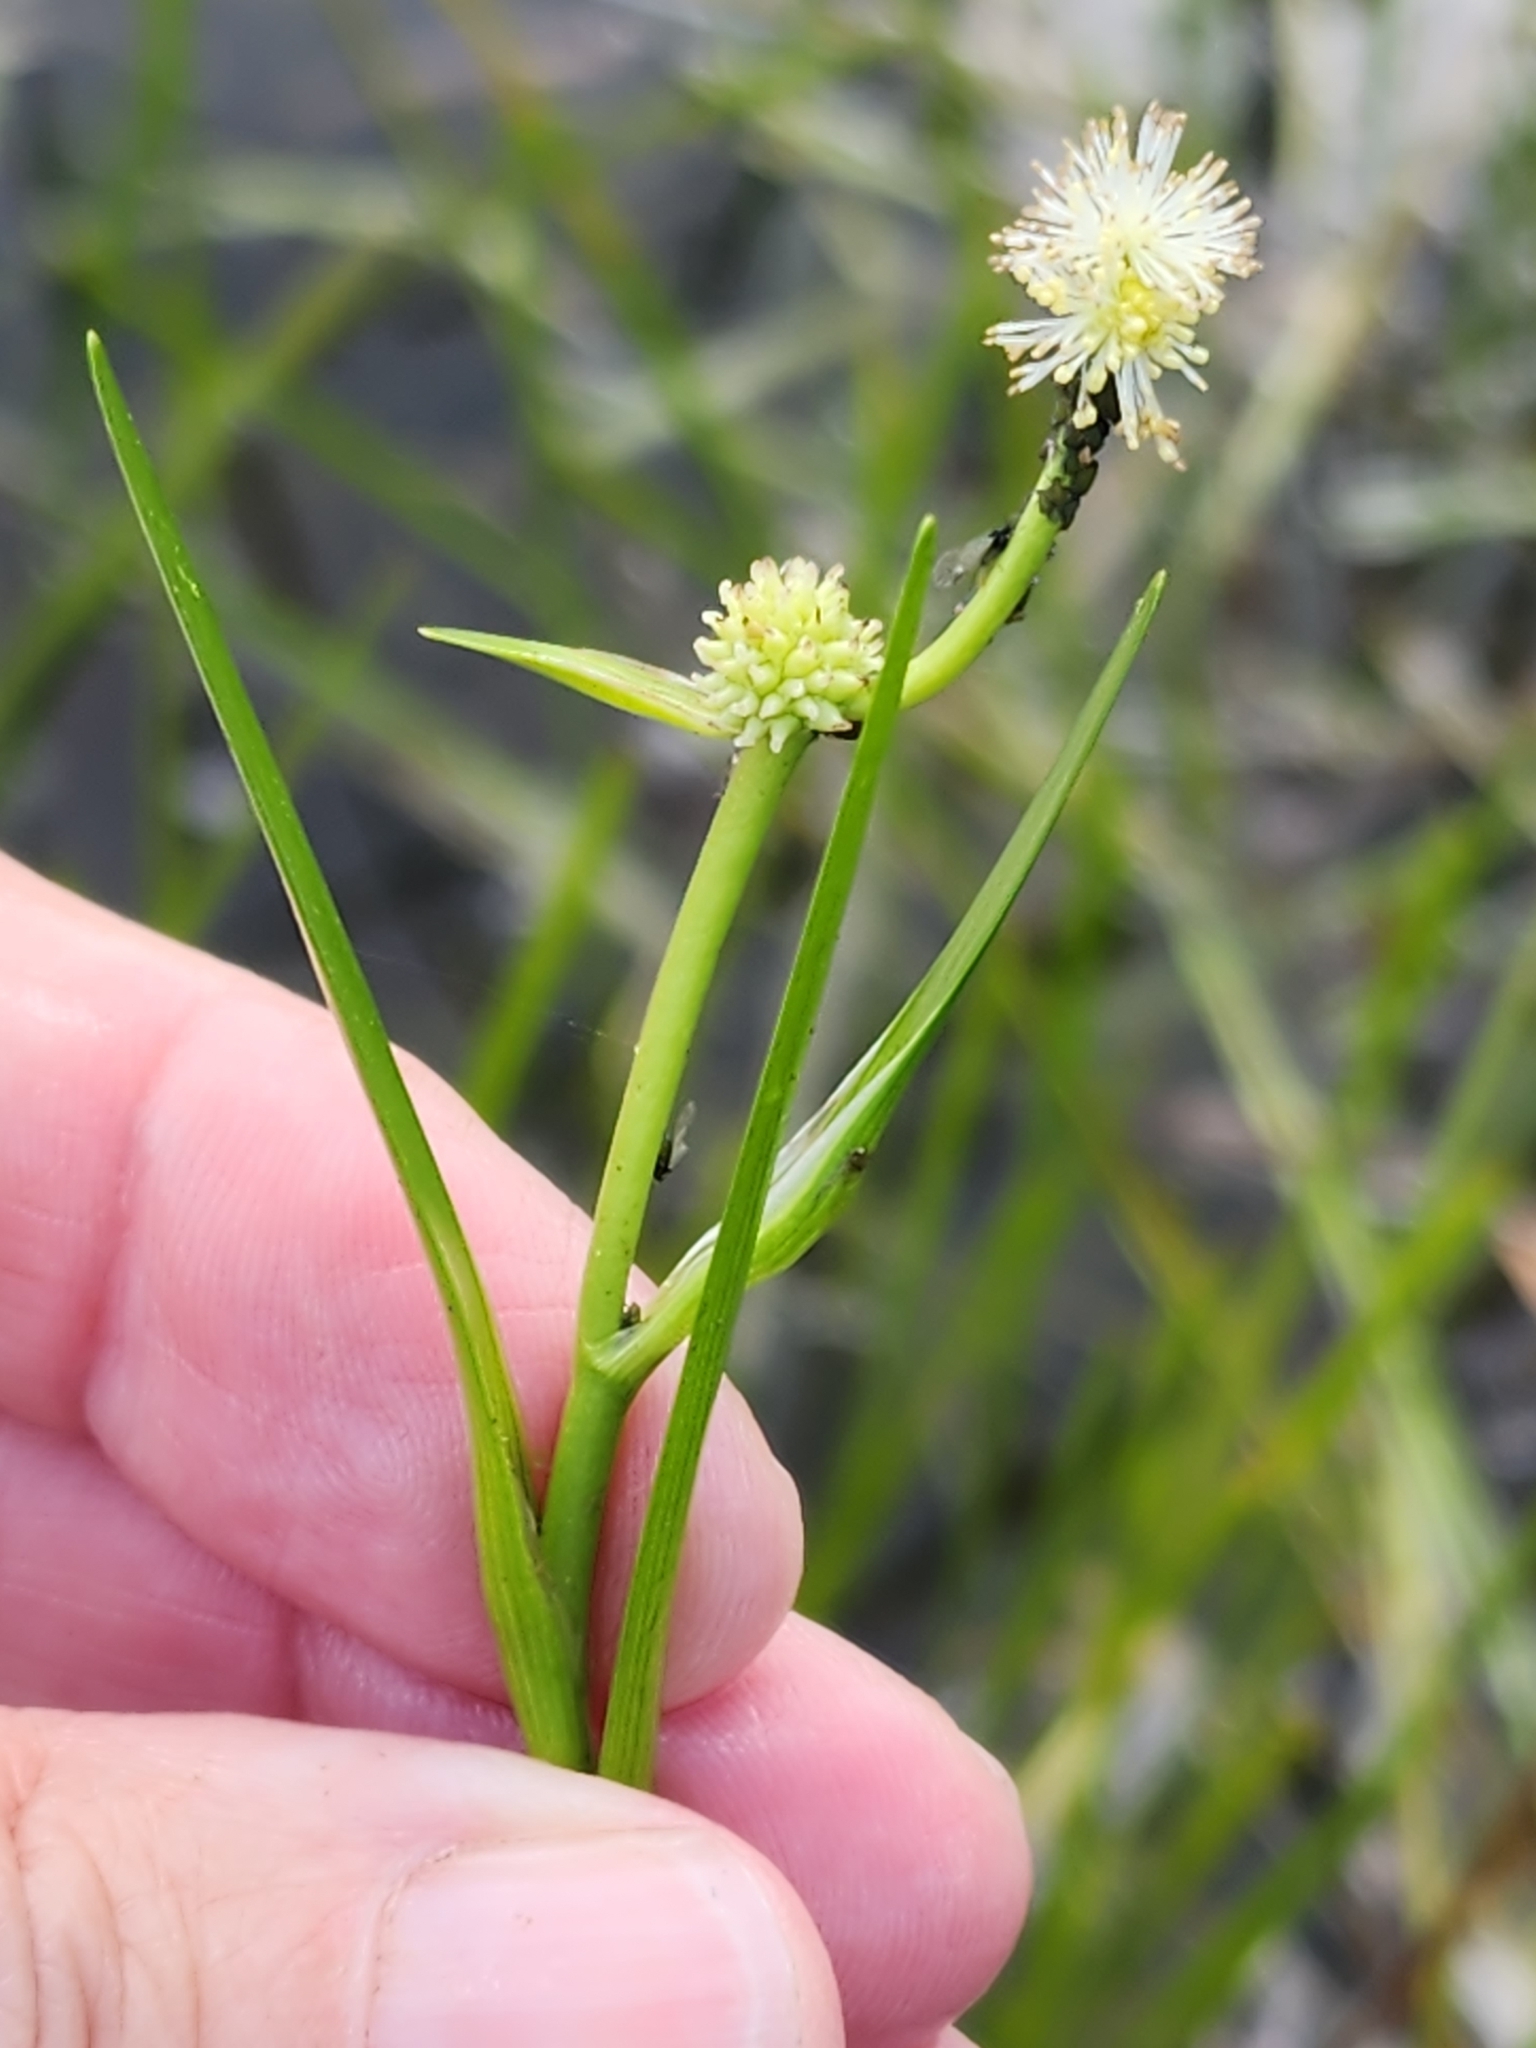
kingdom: Plantae
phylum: Tracheophyta
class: Liliopsida
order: Poales
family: Typhaceae
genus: Sparganium
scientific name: Sparganium natans
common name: Least bur-reed
